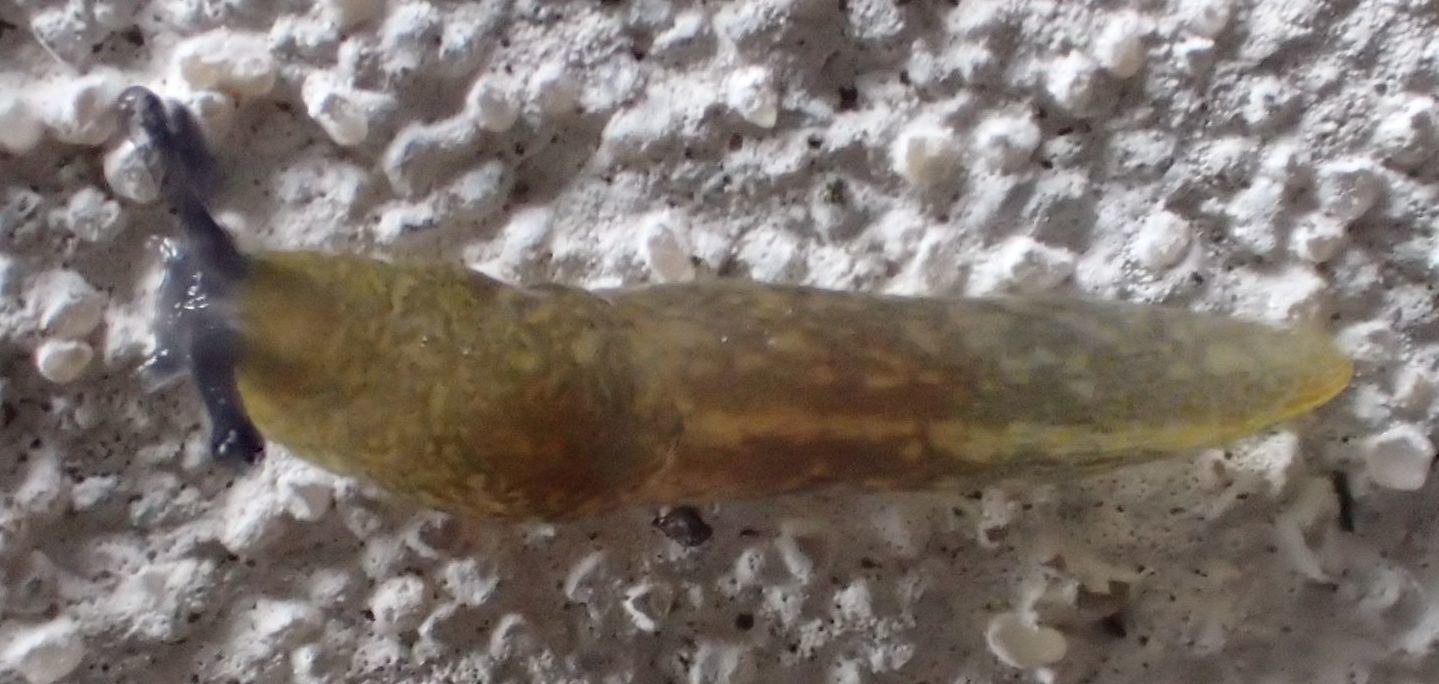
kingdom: Animalia
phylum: Mollusca
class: Gastropoda
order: Stylommatophora
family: Limacidae
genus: Limacus
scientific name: Limacus flavus
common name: Yellow gardenslug
